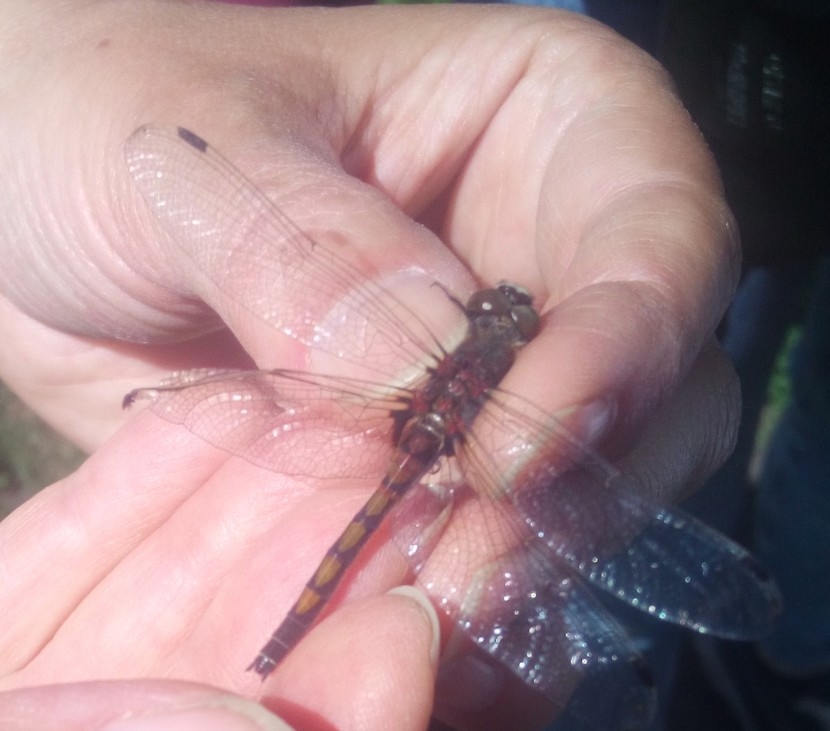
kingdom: Animalia
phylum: Arthropoda
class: Insecta
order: Odonata
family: Libellulidae
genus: Leucorrhinia
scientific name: Leucorrhinia rubicunda
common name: Ruby whiteface
